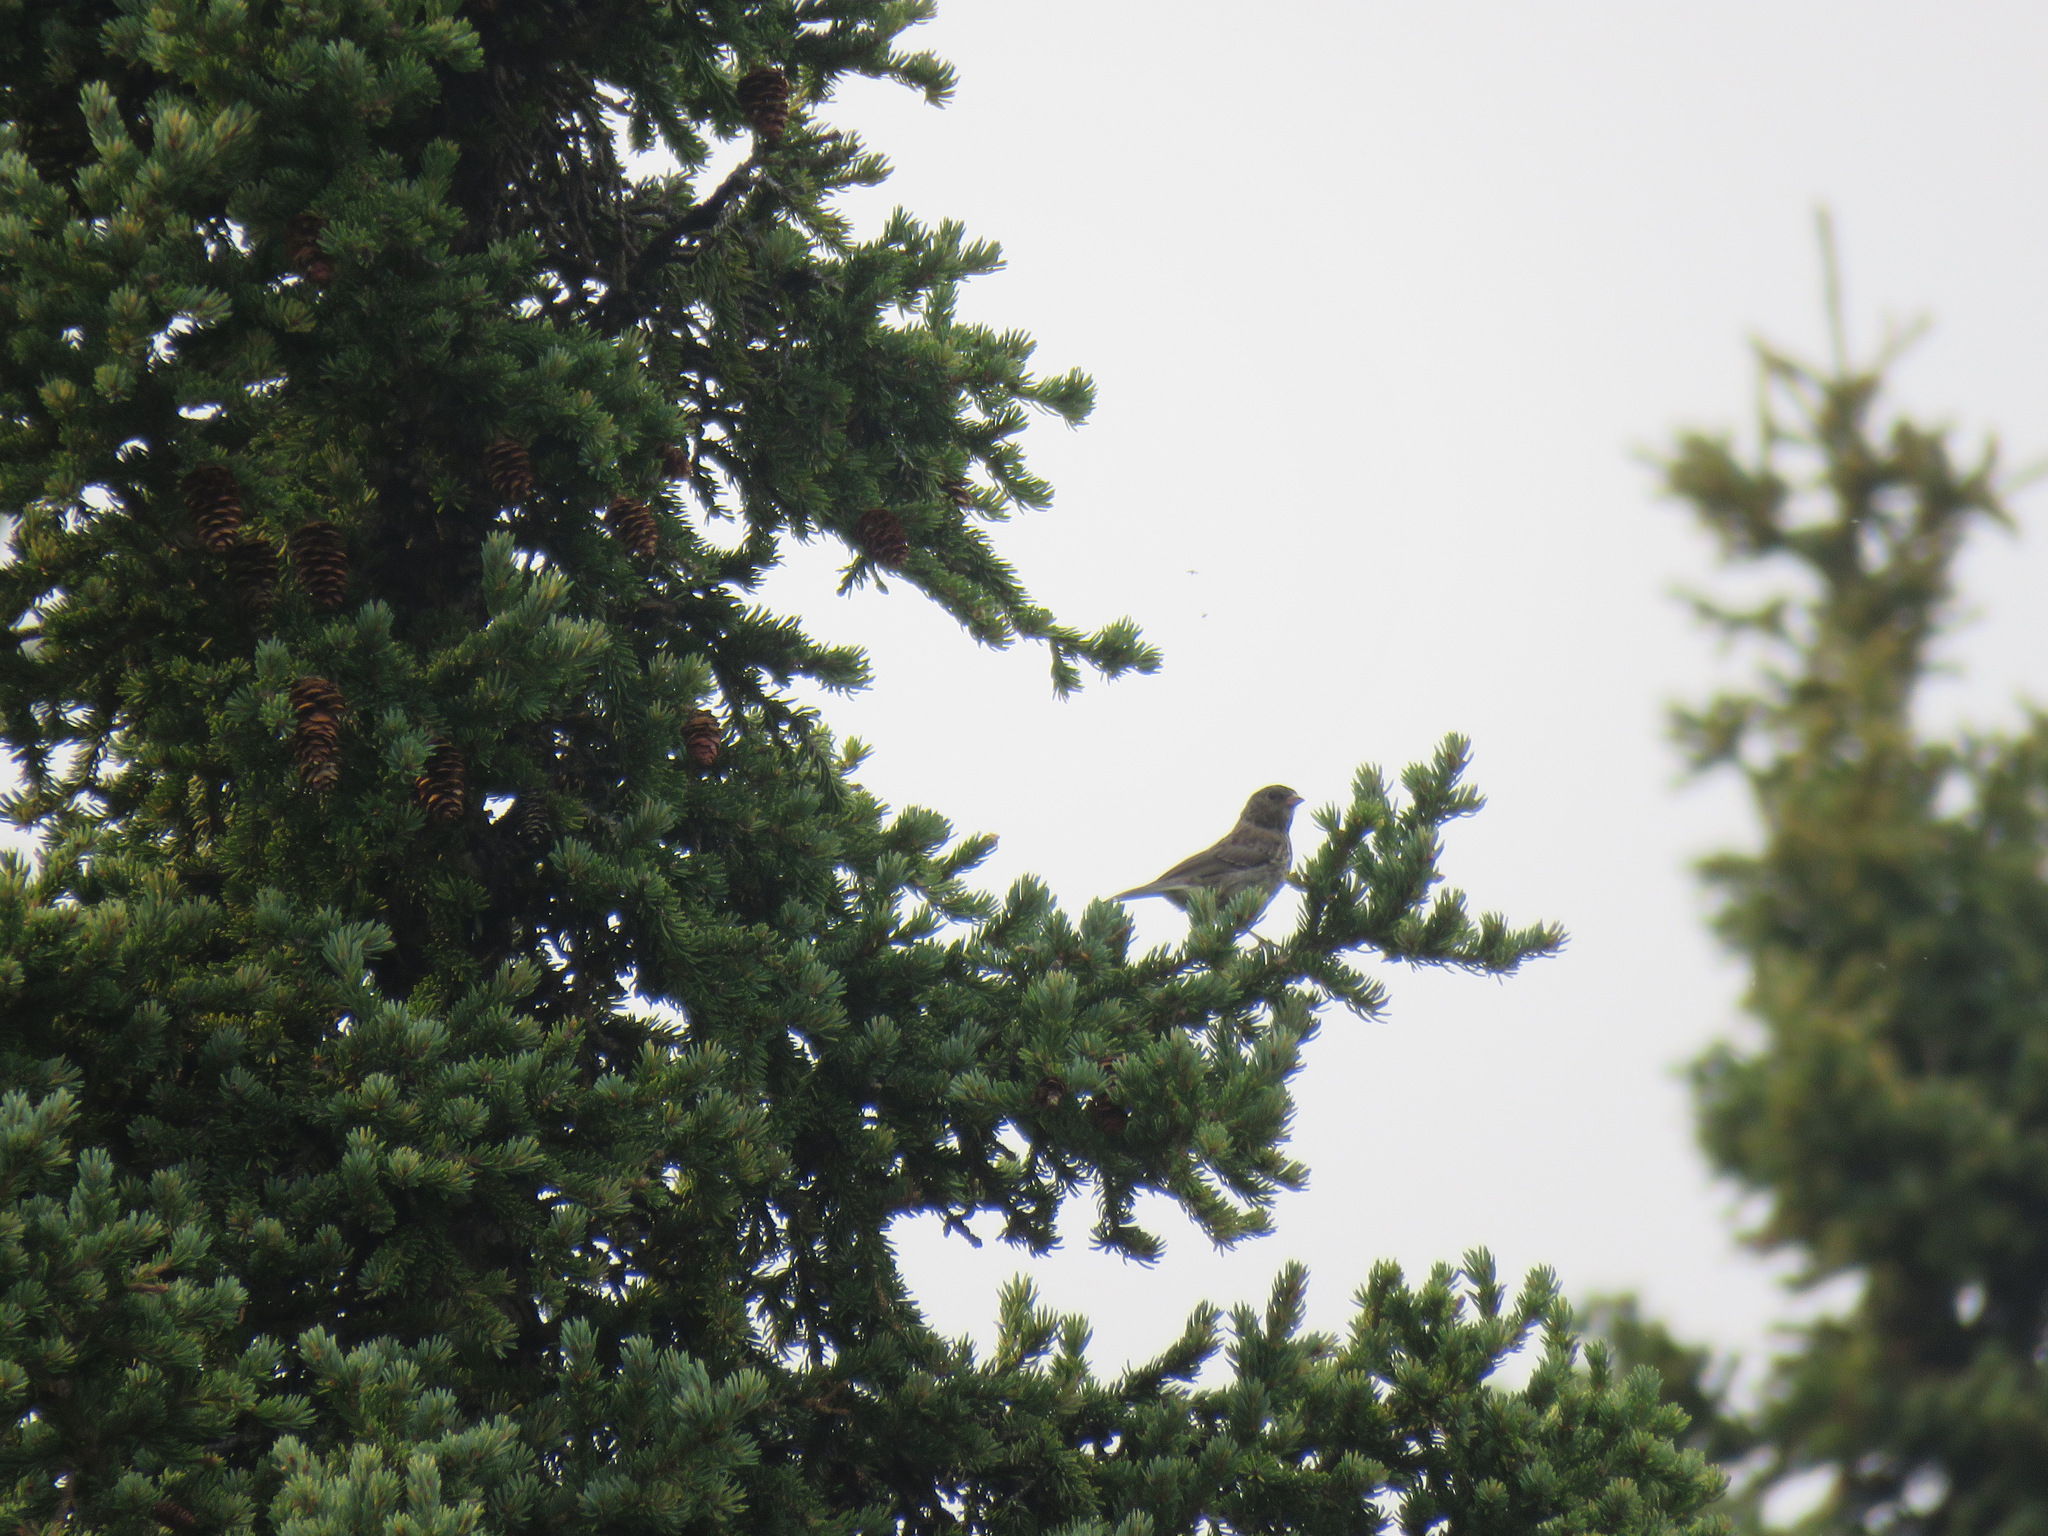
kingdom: Animalia
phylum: Chordata
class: Aves
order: Passeriformes
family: Passerellidae
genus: Junco
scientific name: Junco hyemalis
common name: Dark-eyed junco
